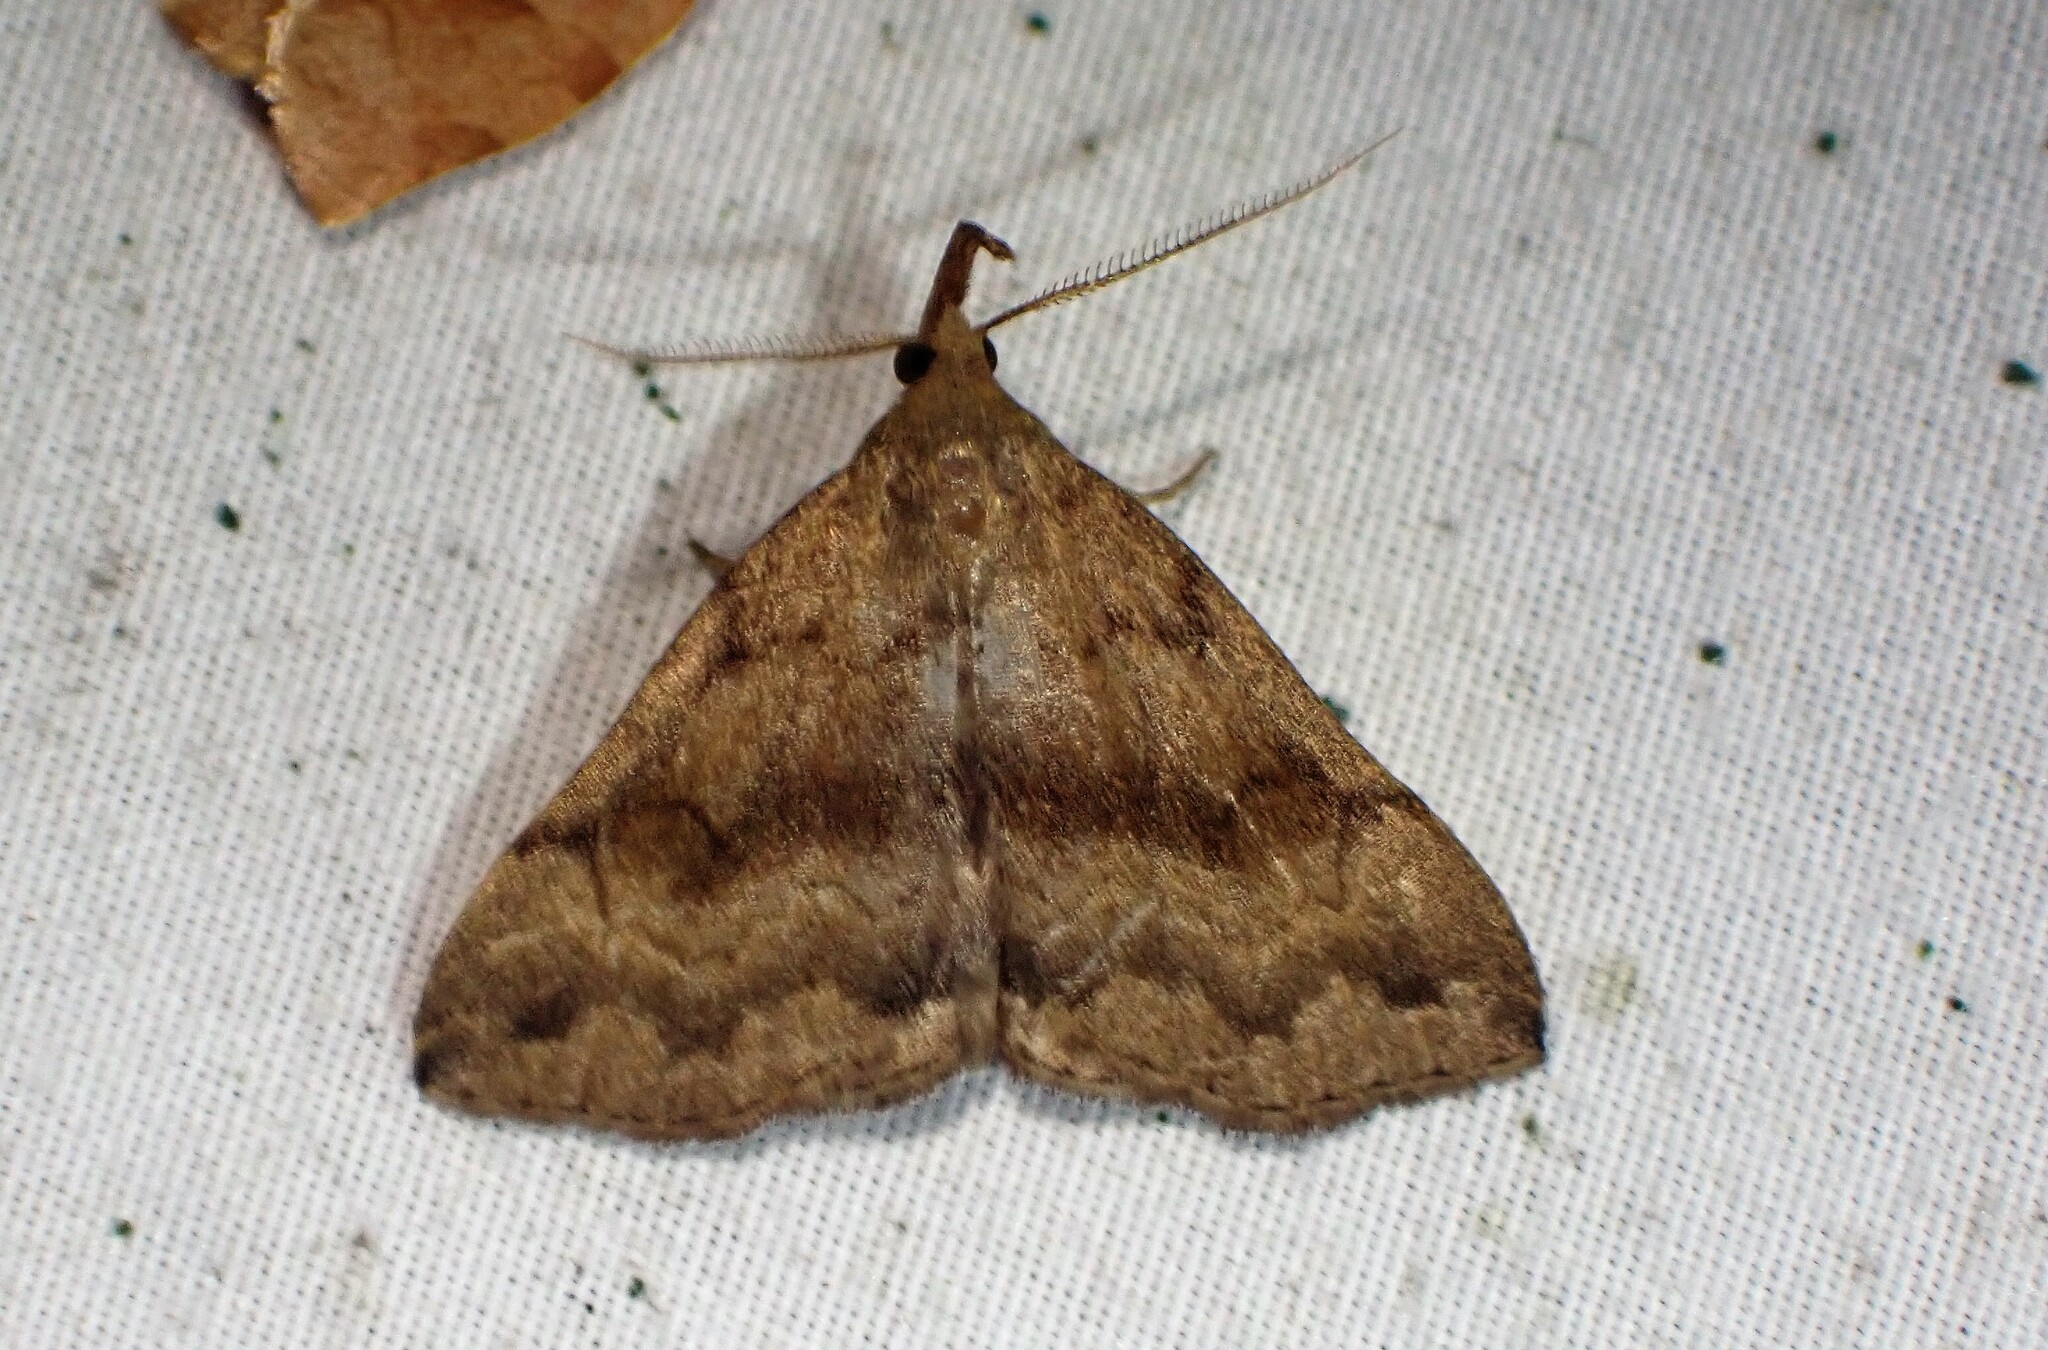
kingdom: Animalia
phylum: Arthropoda
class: Insecta
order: Lepidoptera
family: Erebidae
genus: Phalaenostola
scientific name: Phalaenostola eumelusalis
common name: Dark phalaenostola moth
